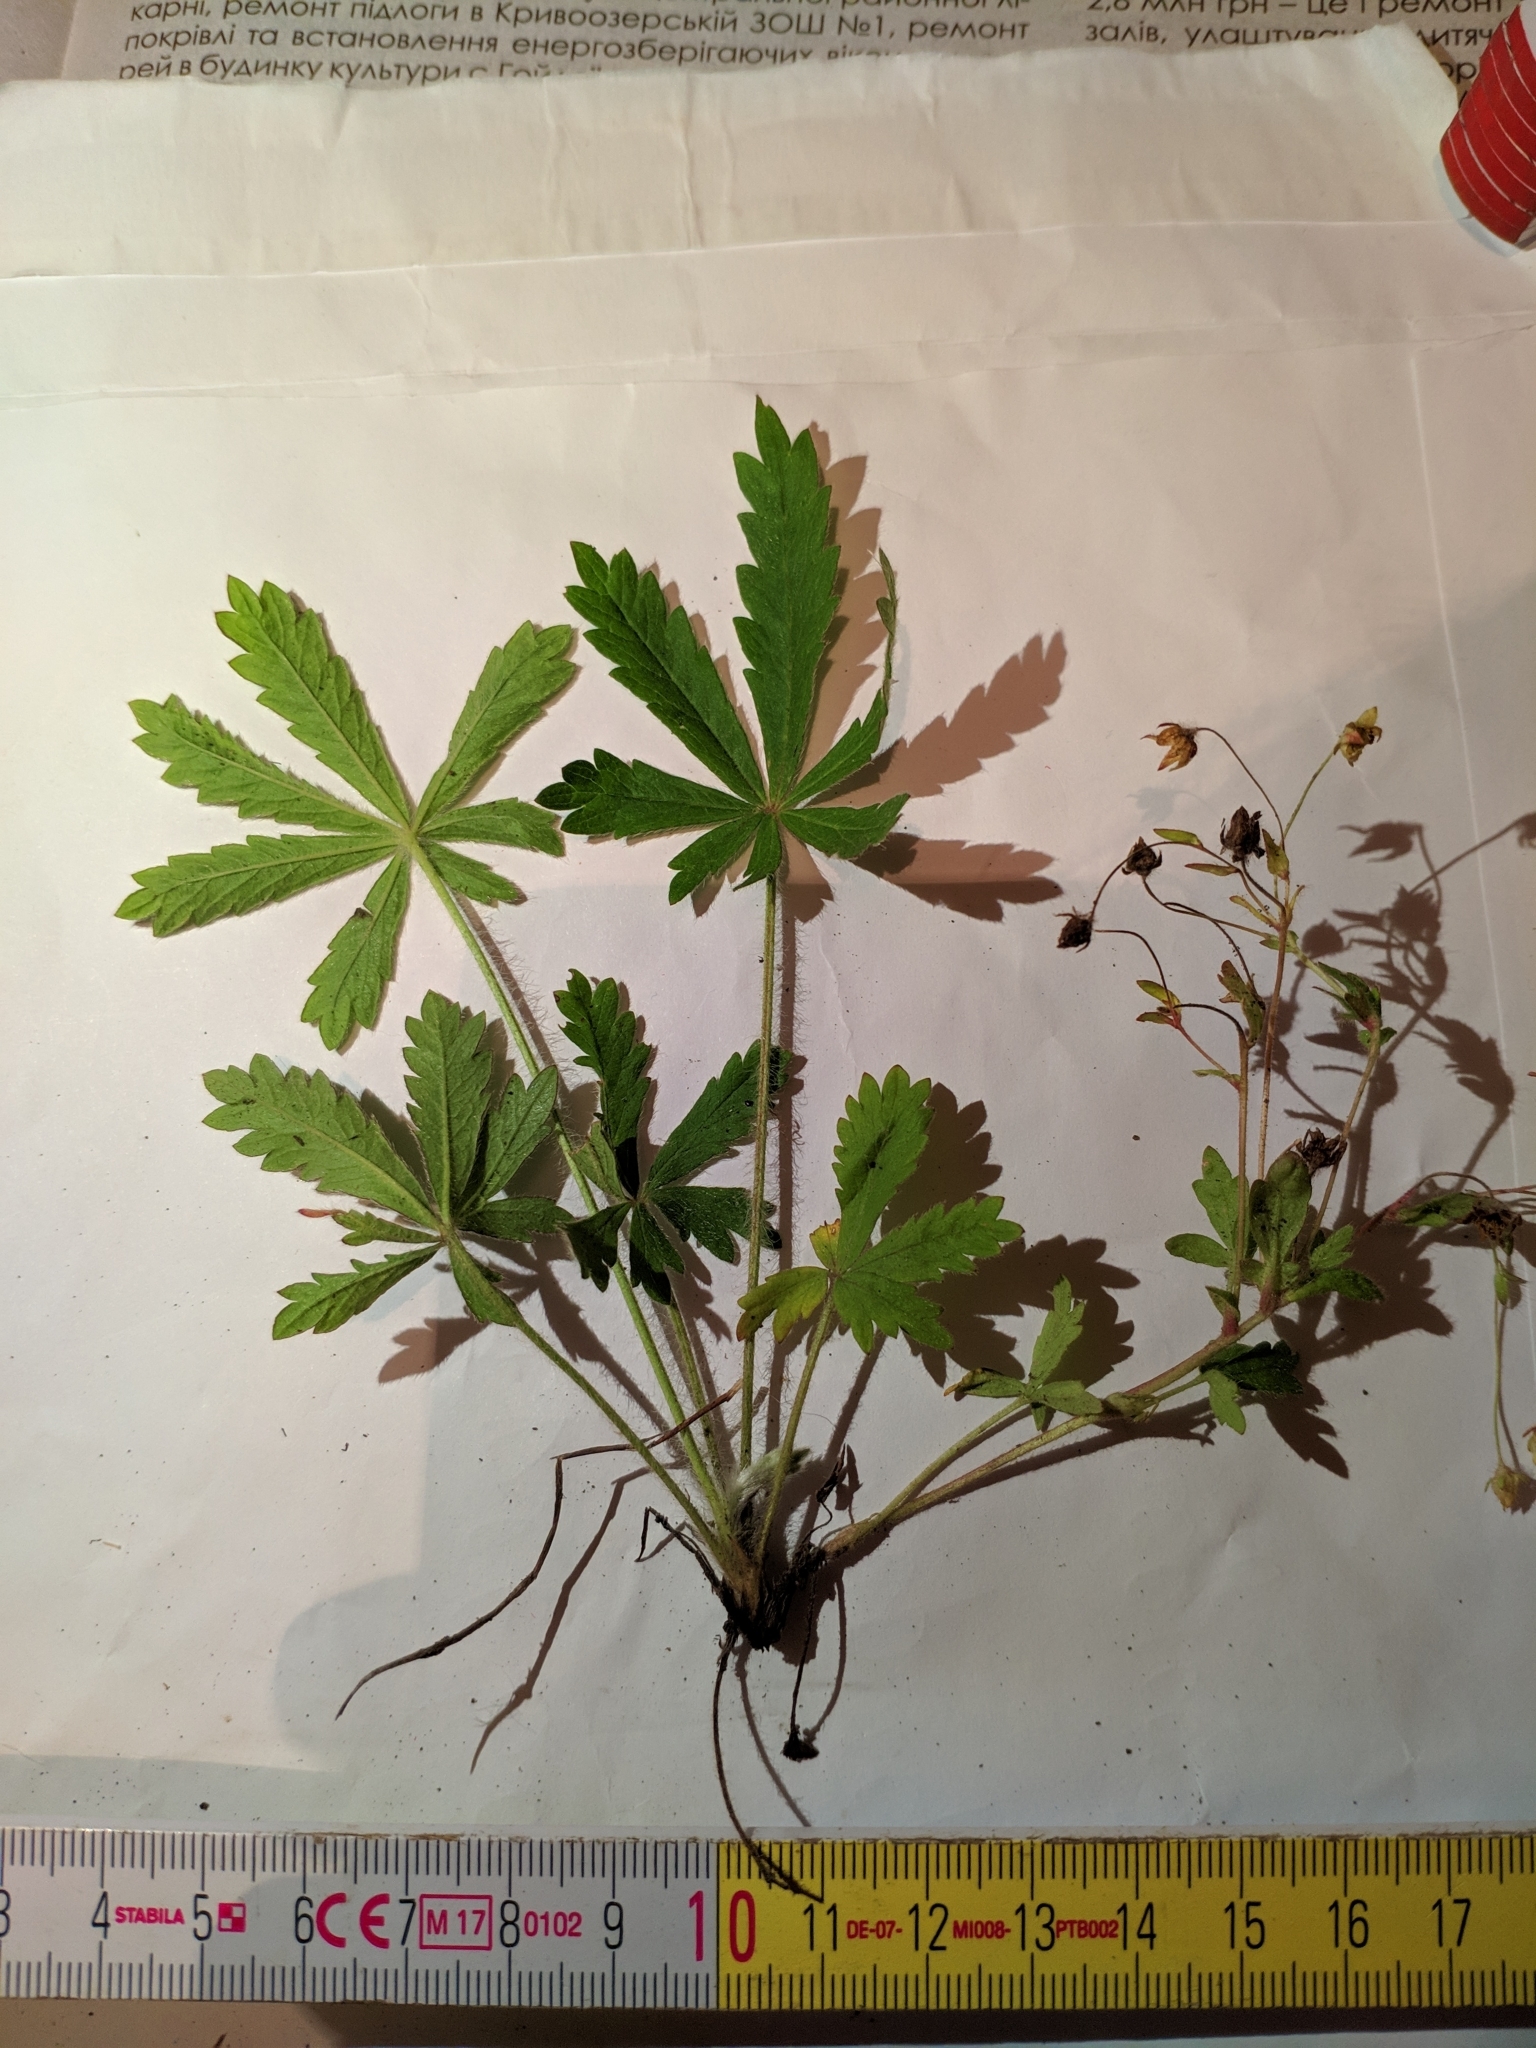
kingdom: Plantae
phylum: Tracheophyta
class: Magnoliopsida
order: Rosales
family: Rosaceae
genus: Potentilla
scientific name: Potentilla humifusa
